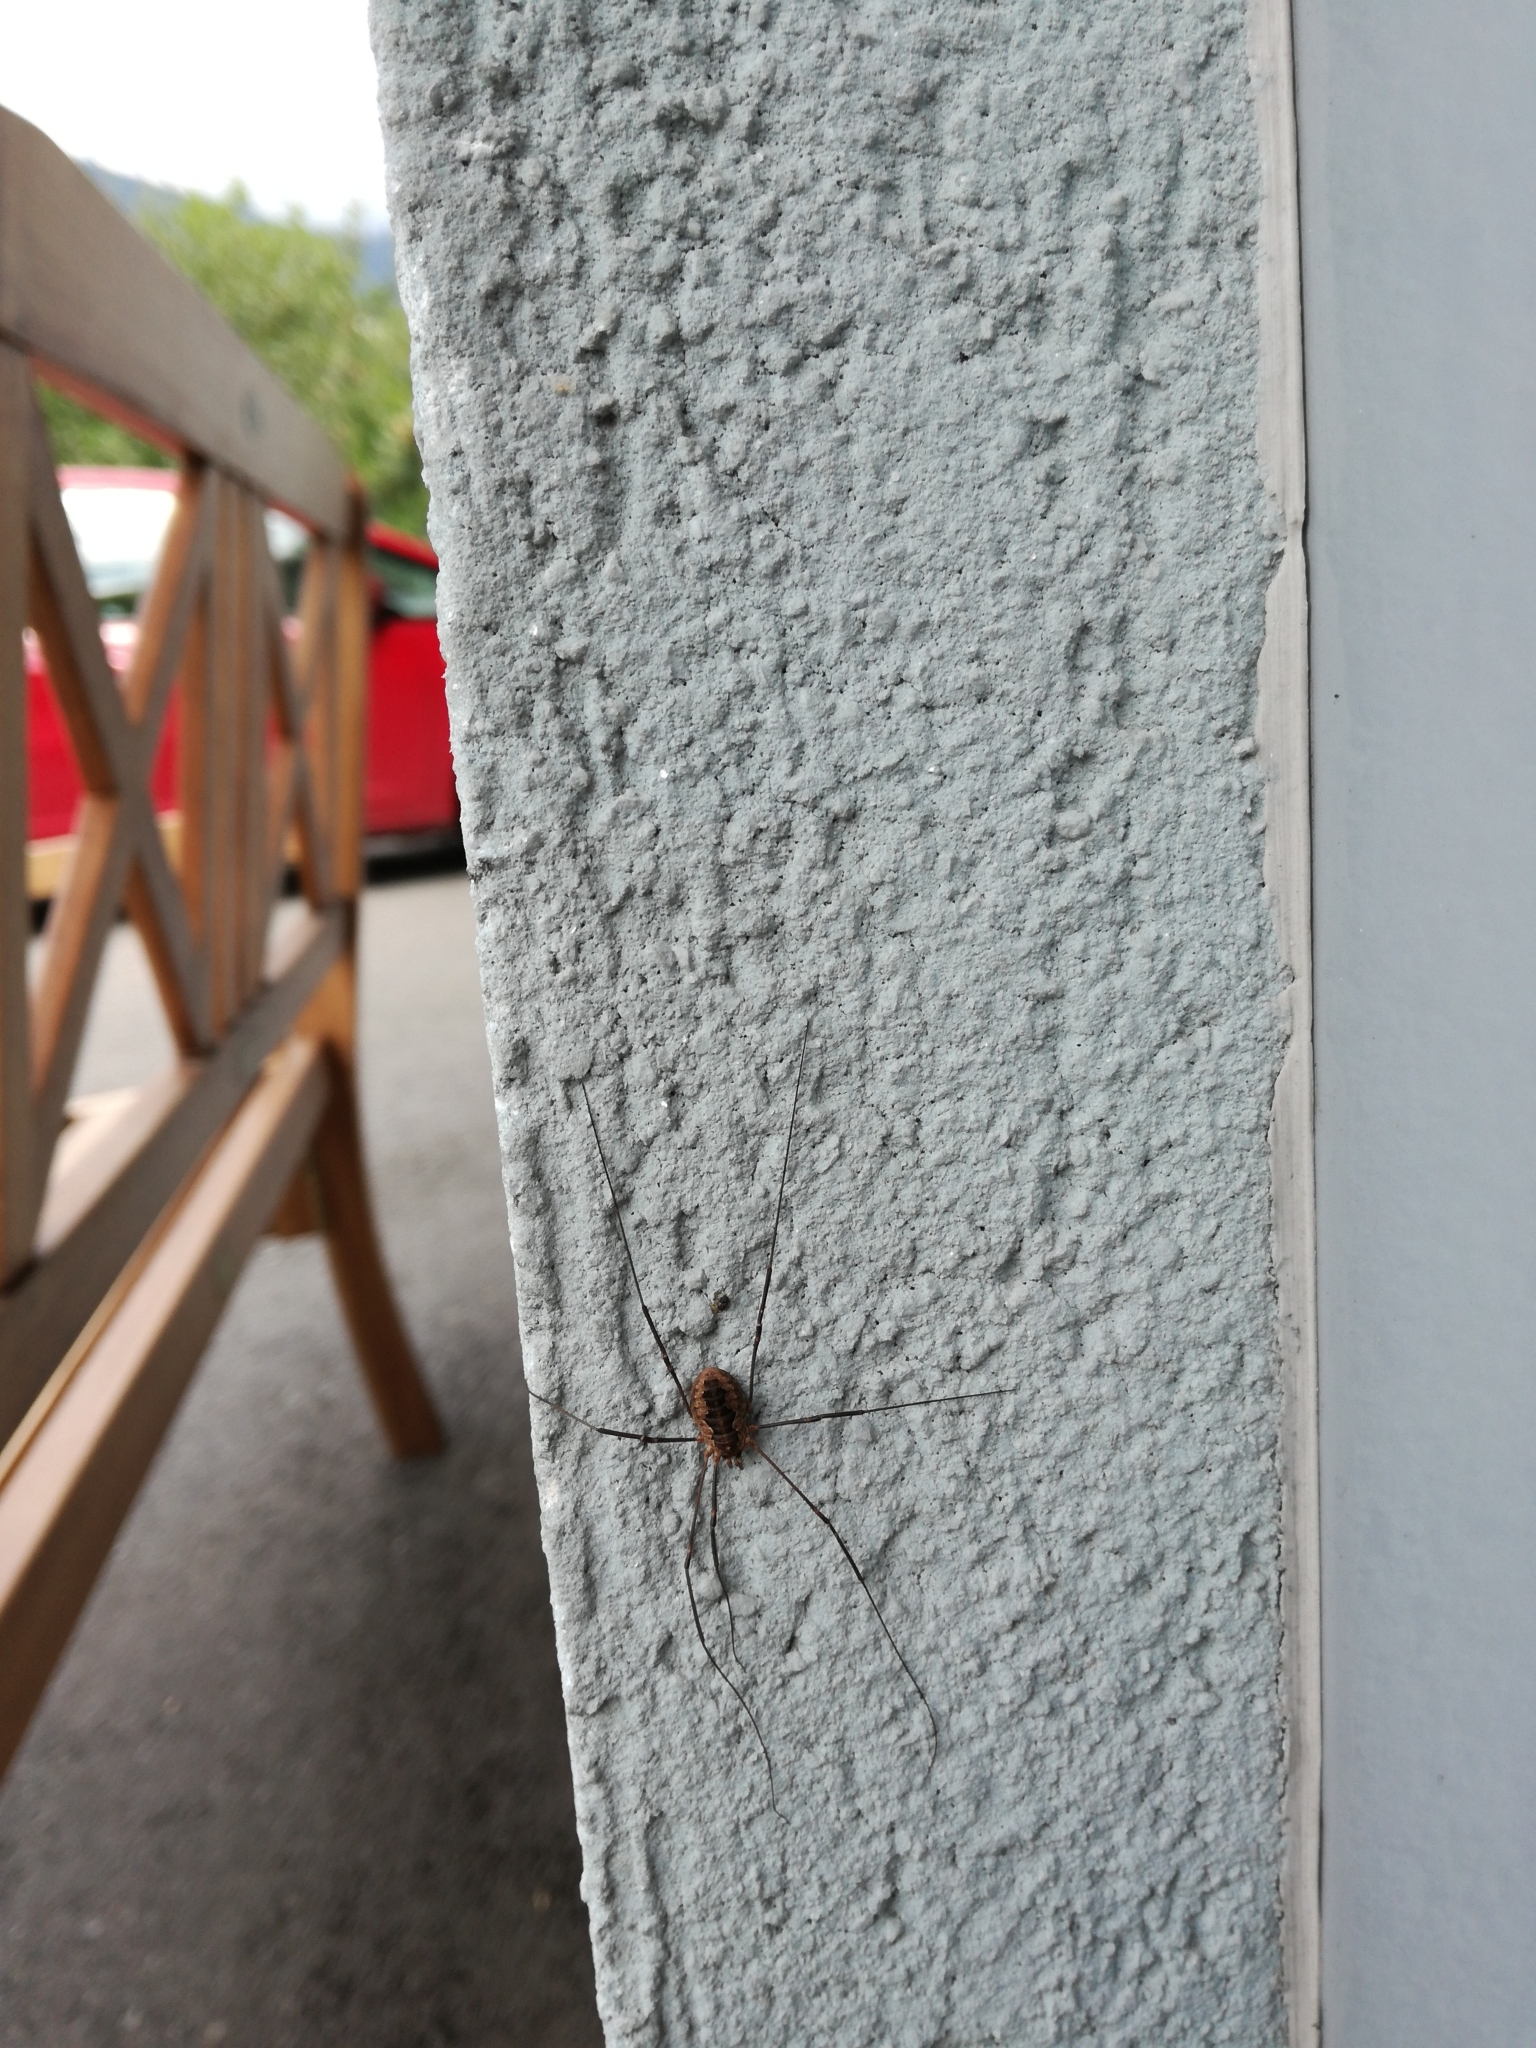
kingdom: Animalia
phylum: Arthropoda
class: Arachnida
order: Opiliones
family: Phalangiidae
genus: Phalangium
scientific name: Phalangium opilio
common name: Daddy longleg
